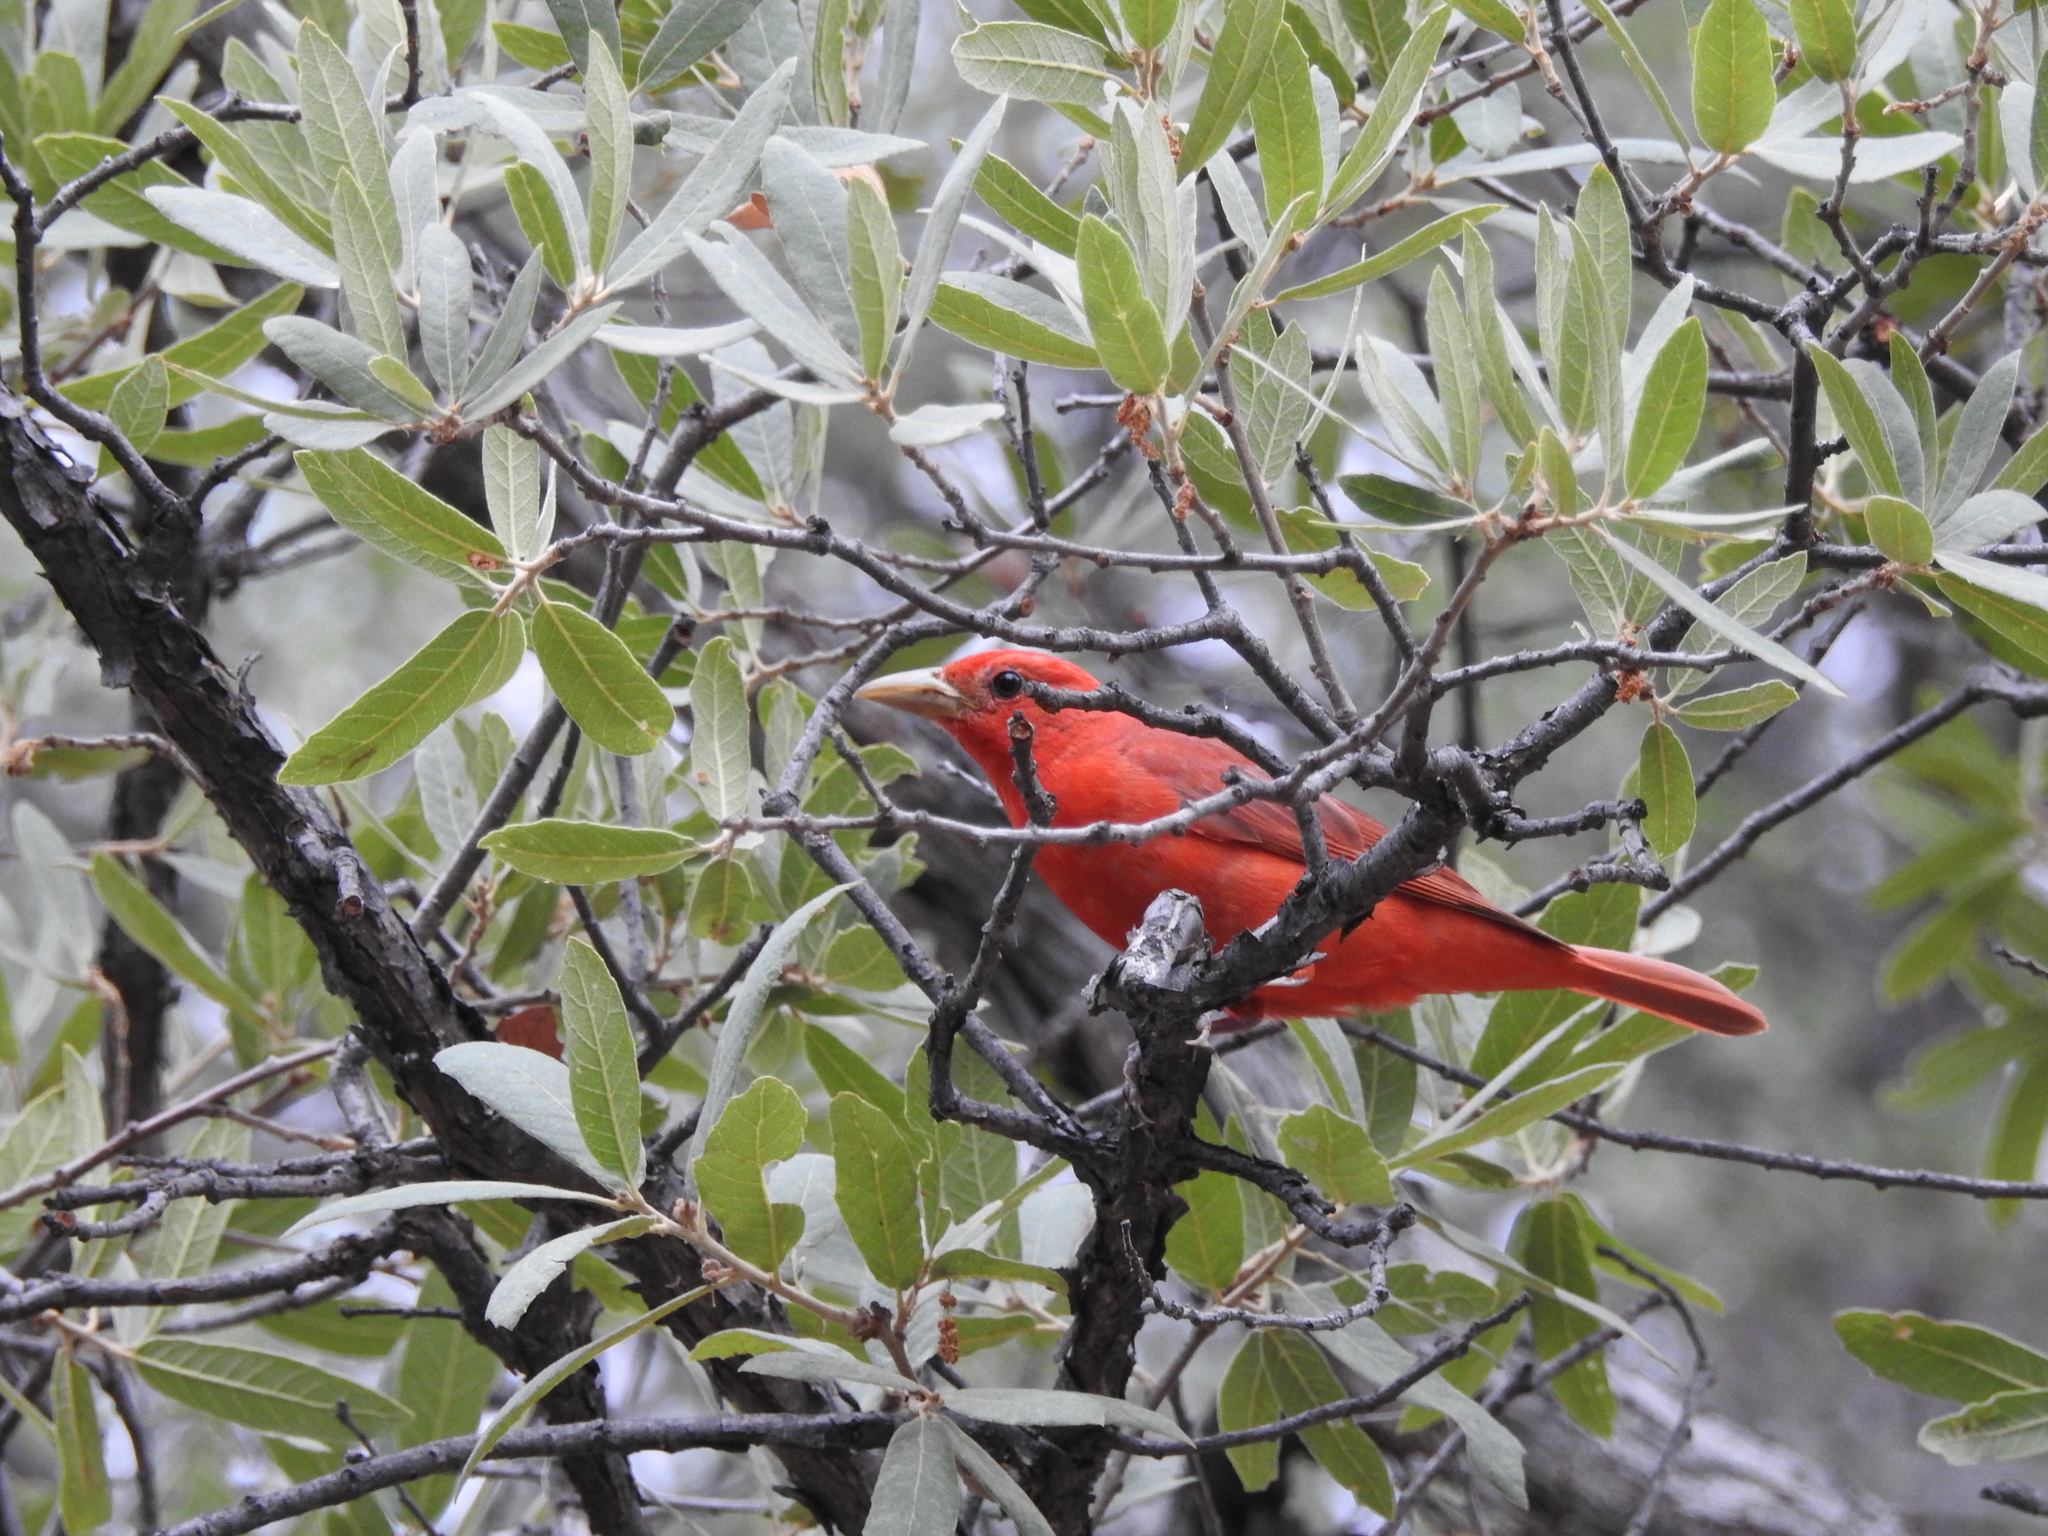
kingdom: Animalia
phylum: Chordata
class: Aves
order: Passeriformes
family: Cardinalidae
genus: Piranga
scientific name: Piranga rubra
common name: Summer tanager
